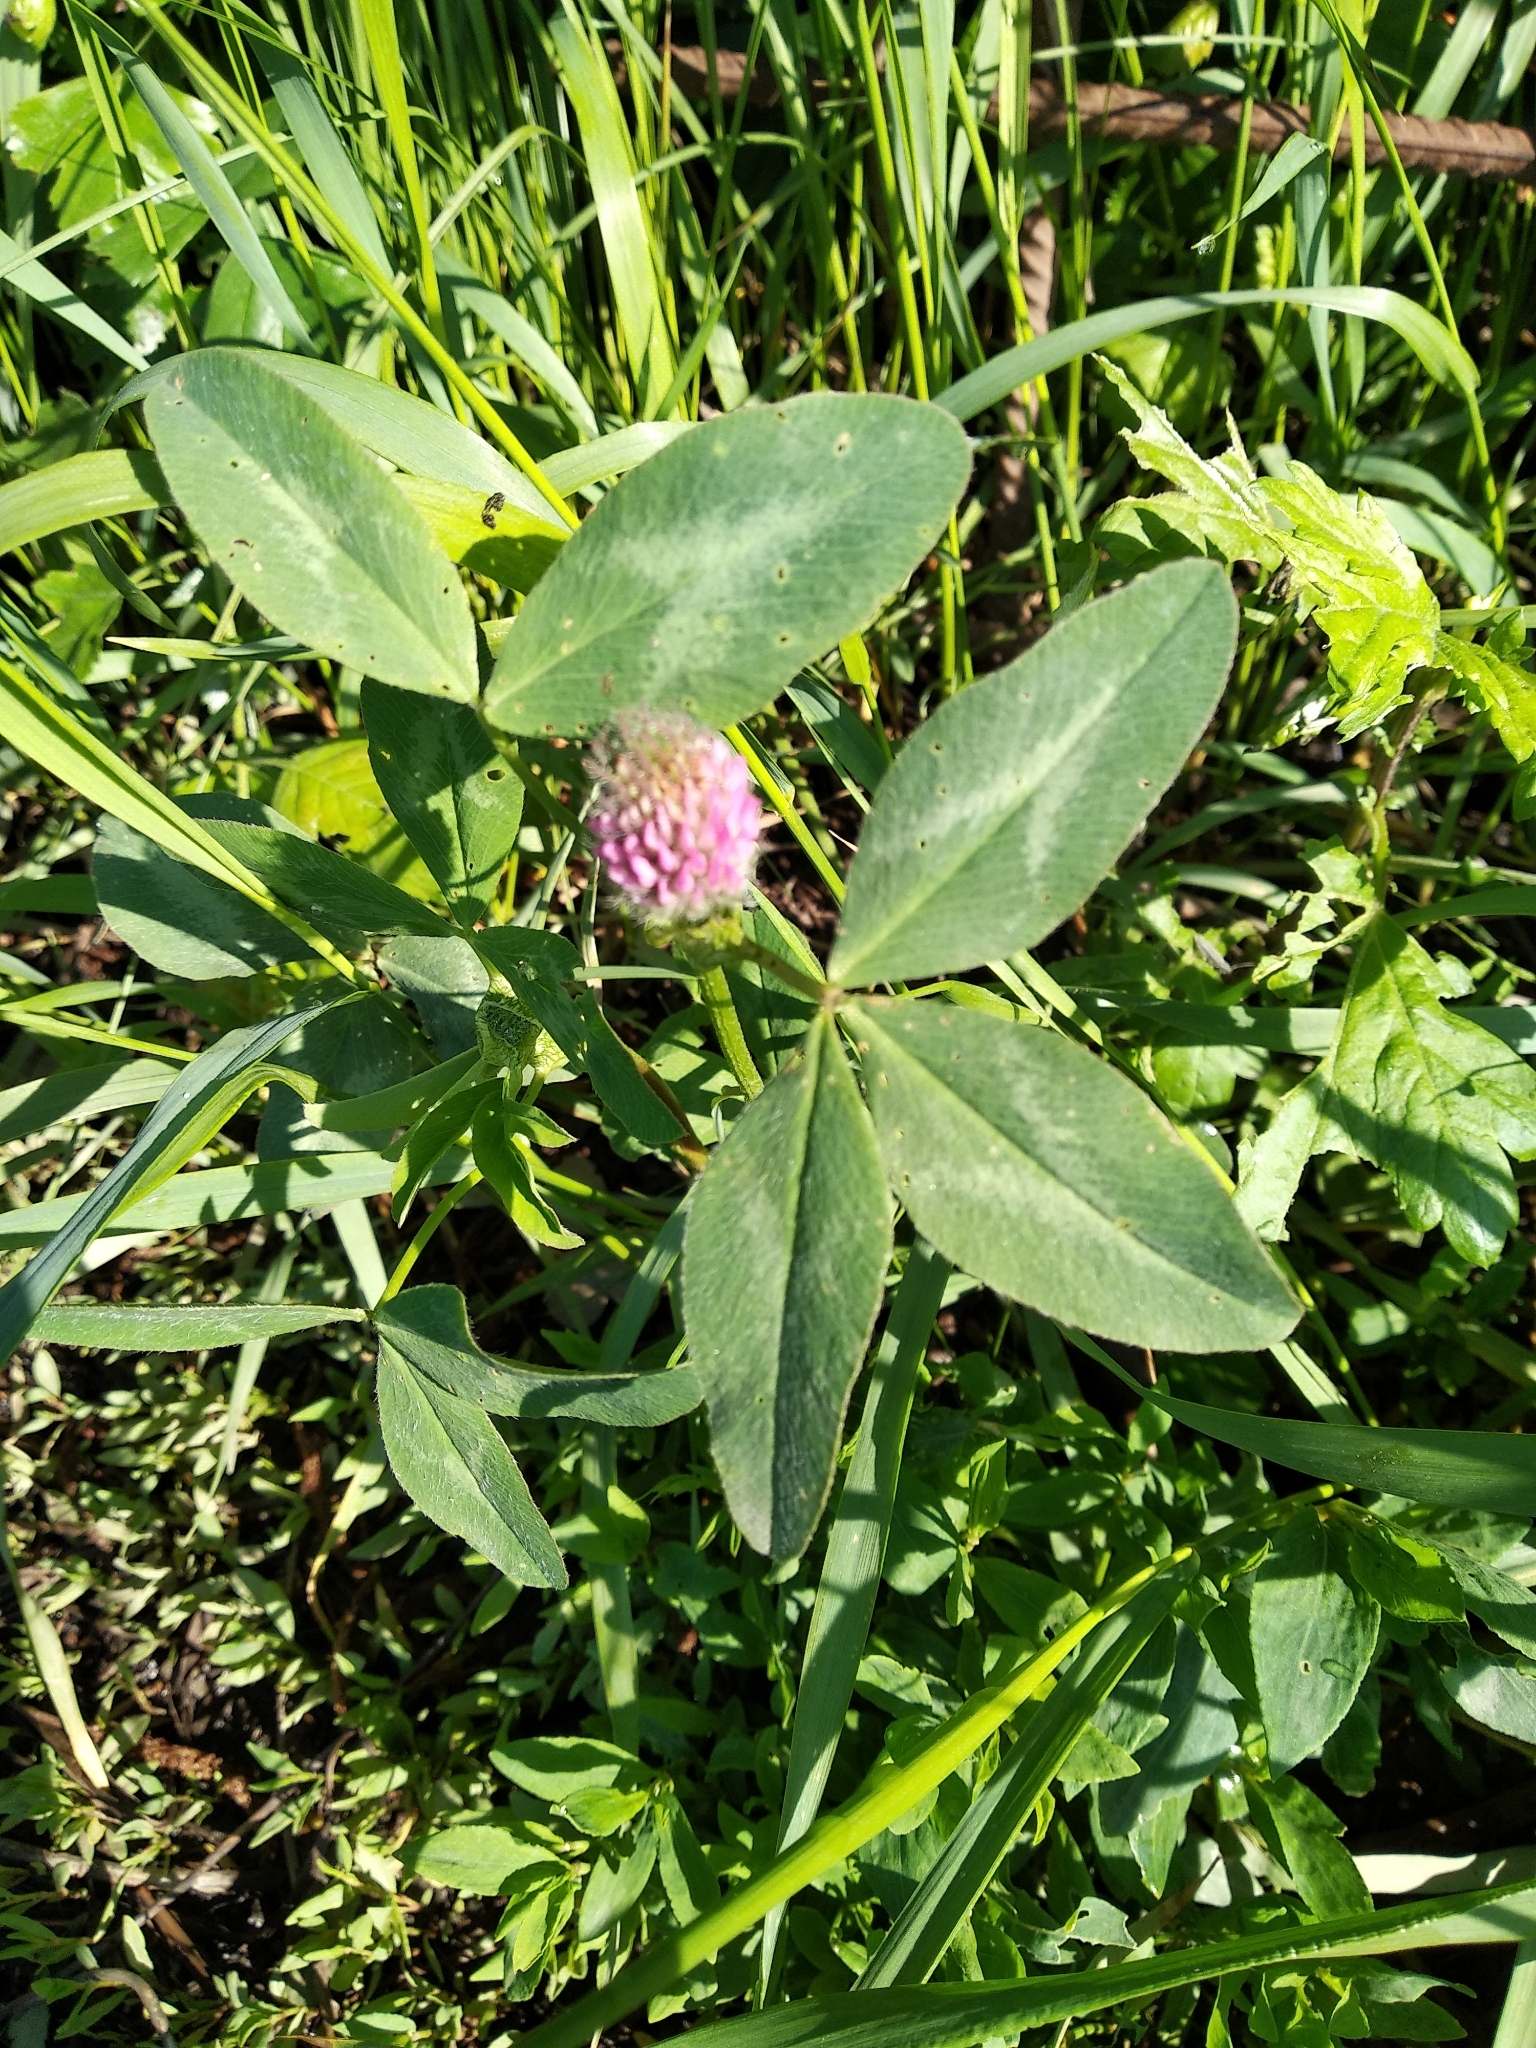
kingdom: Plantae
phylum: Tracheophyta
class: Magnoliopsida
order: Fabales
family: Fabaceae
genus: Trifolium
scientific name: Trifolium pratense
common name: Red clover
